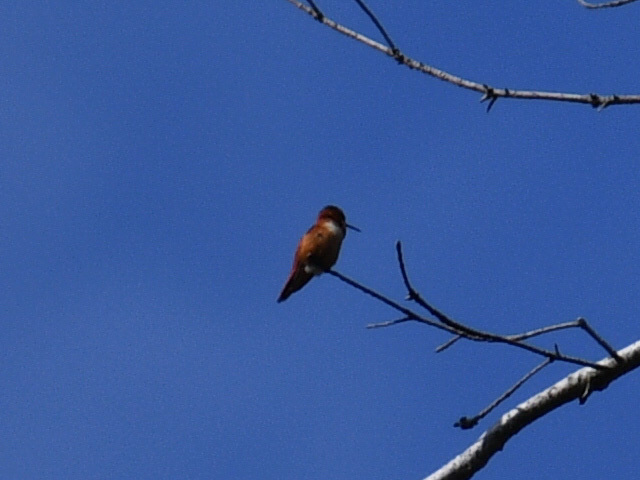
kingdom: Animalia
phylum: Chordata
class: Aves
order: Apodiformes
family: Trochilidae
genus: Selasphorus
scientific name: Selasphorus rufus
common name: Rufous hummingbird
